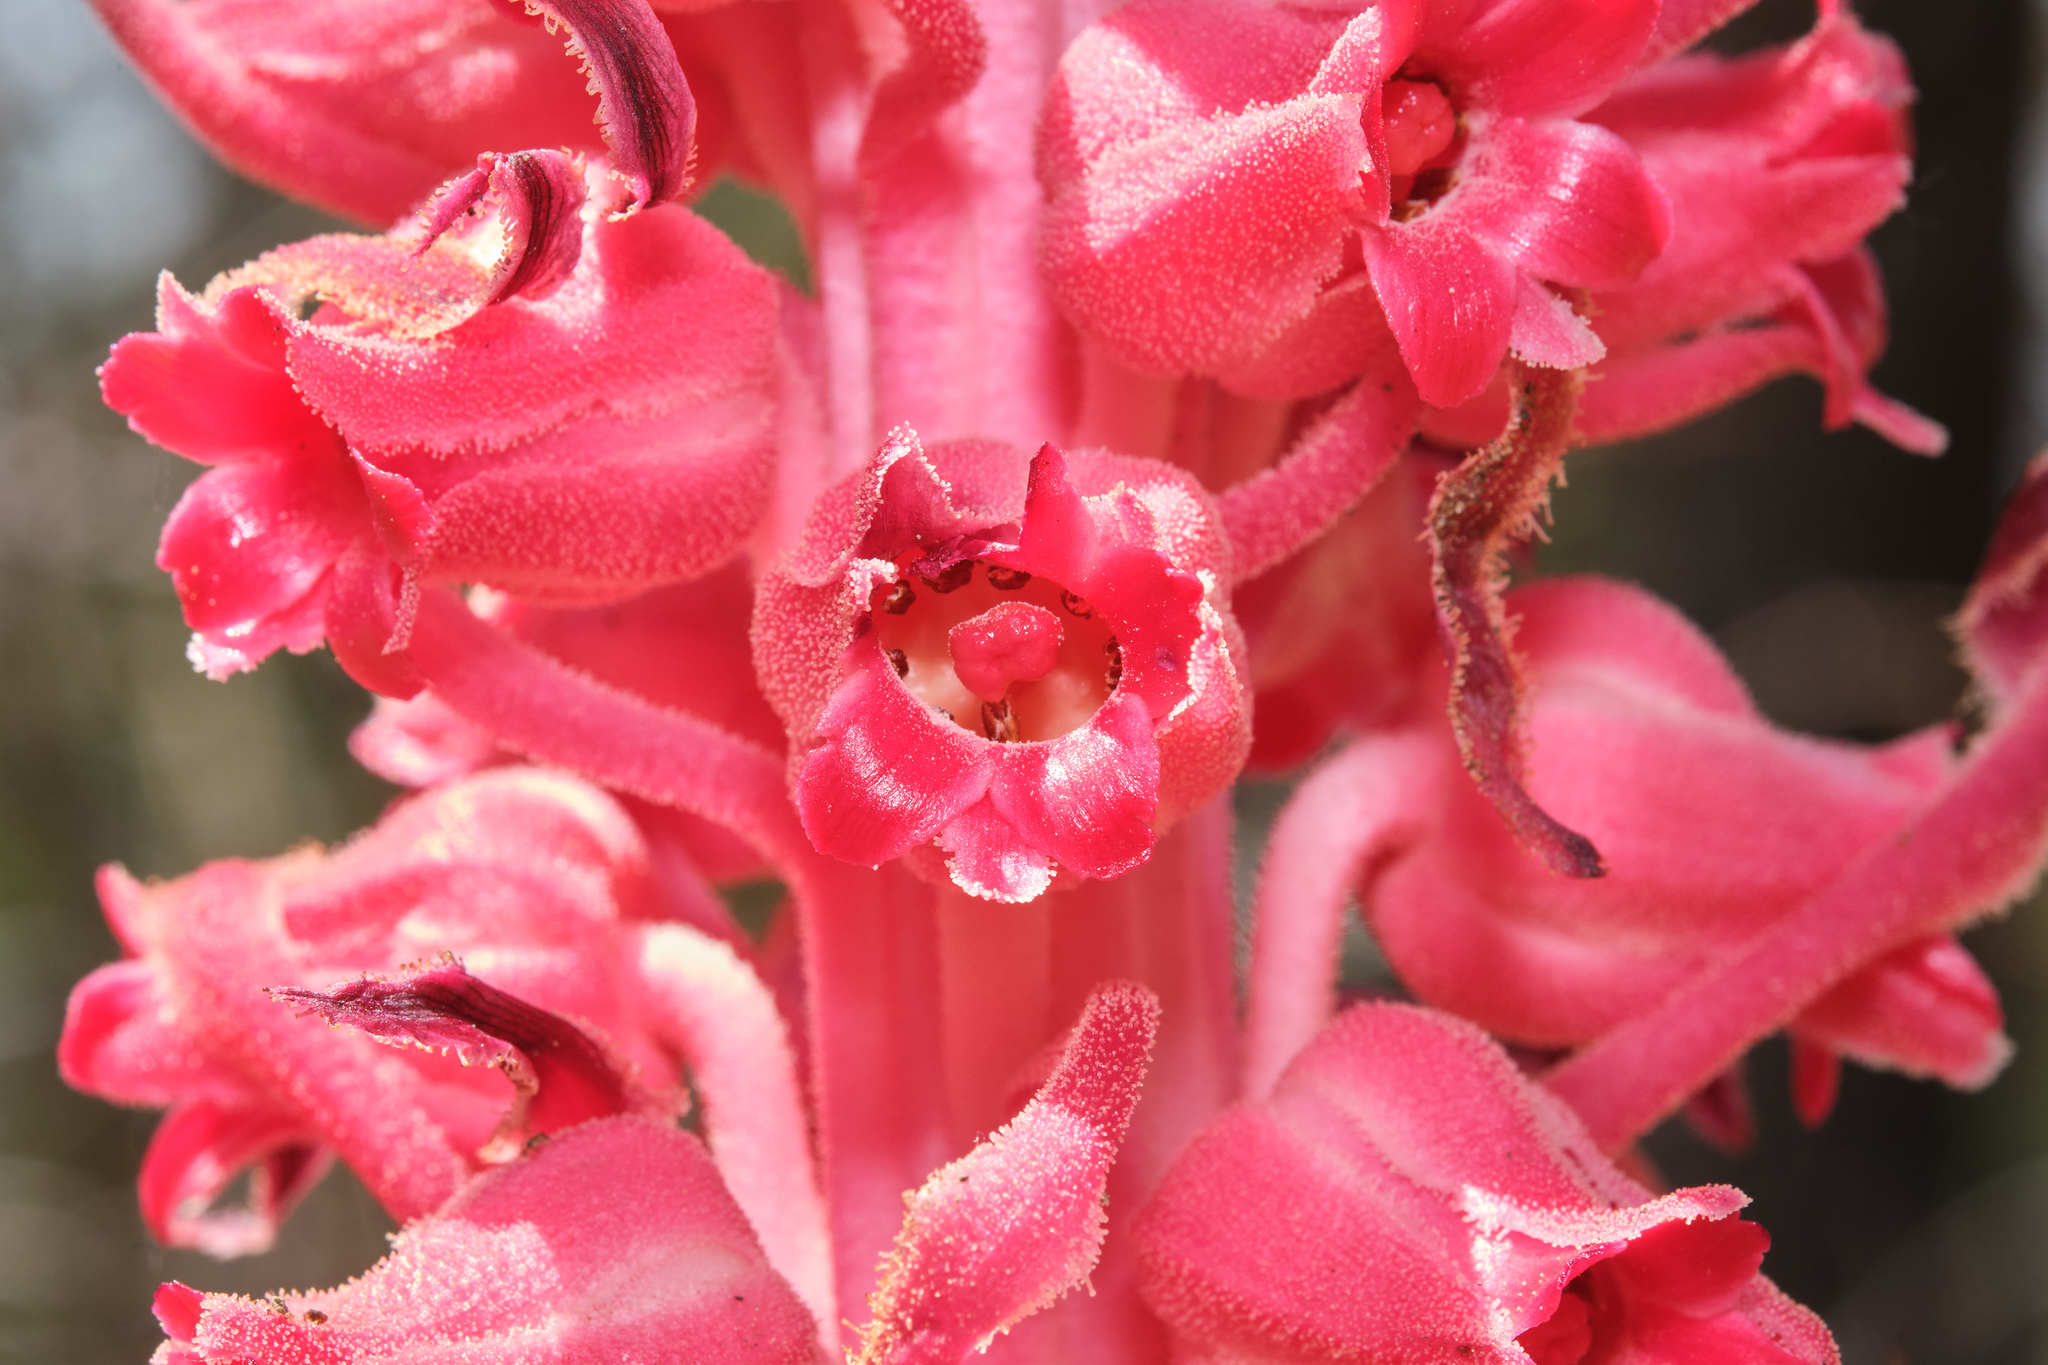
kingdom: Plantae
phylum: Tracheophyta
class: Magnoliopsida
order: Ericales
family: Ericaceae
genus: Sarcodes
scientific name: Sarcodes sanguinea
